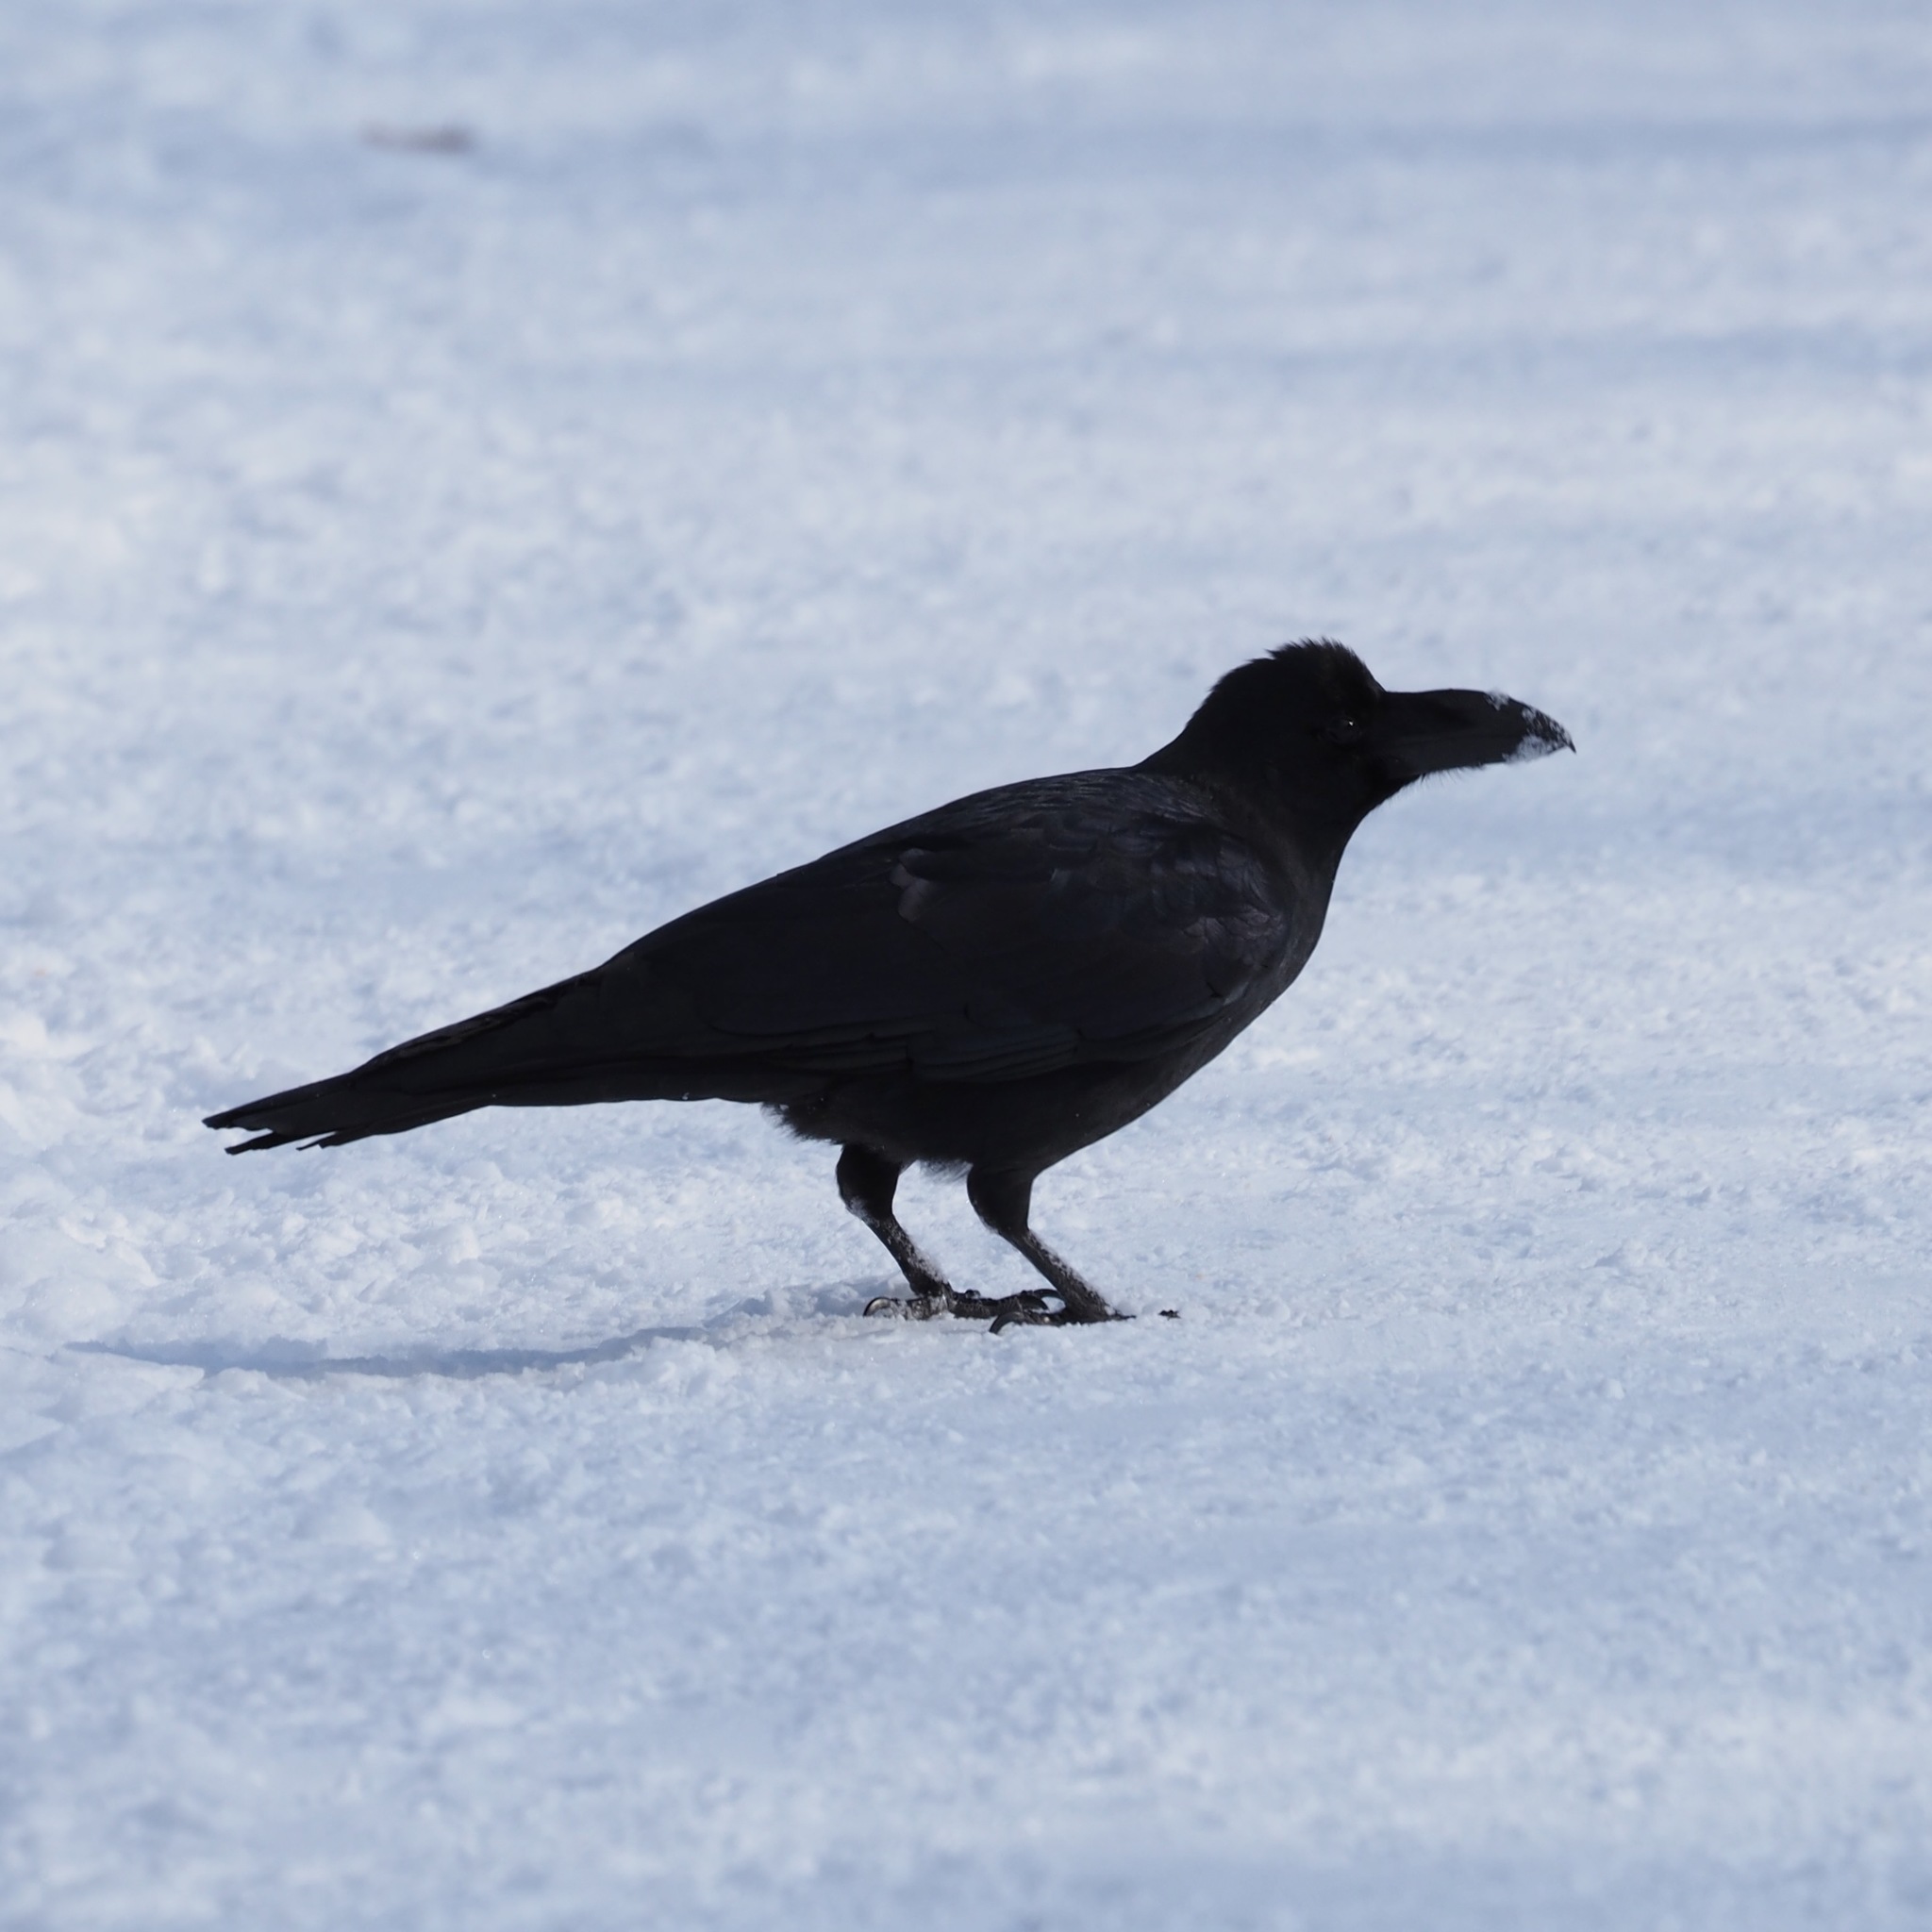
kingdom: Animalia
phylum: Chordata
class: Aves
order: Passeriformes
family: Corvidae
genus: Corvus
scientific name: Corvus macrorhynchos
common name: Large-billed crow
